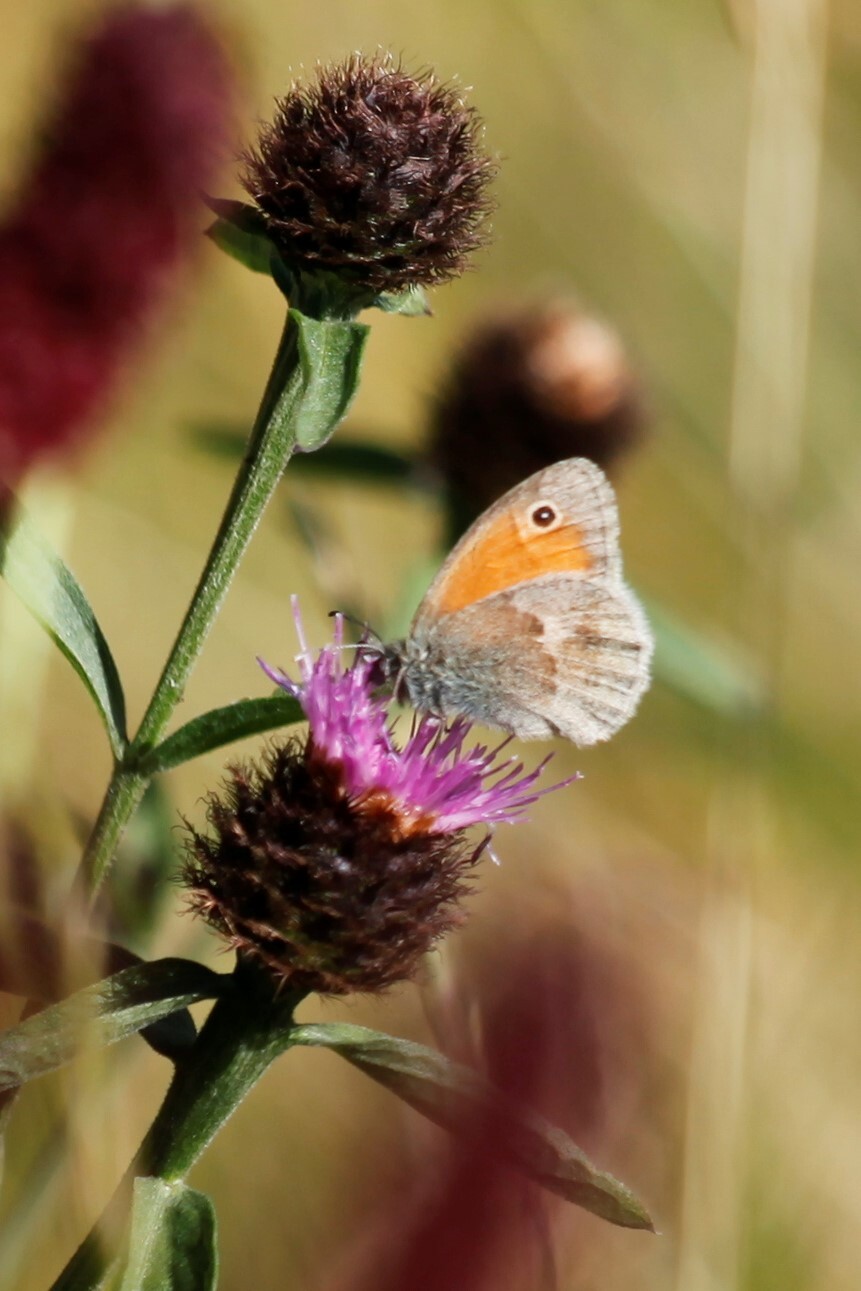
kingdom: Animalia
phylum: Arthropoda
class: Insecta
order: Lepidoptera
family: Nymphalidae
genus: Coenonympha
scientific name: Coenonympha pamphilus
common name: Small heath
